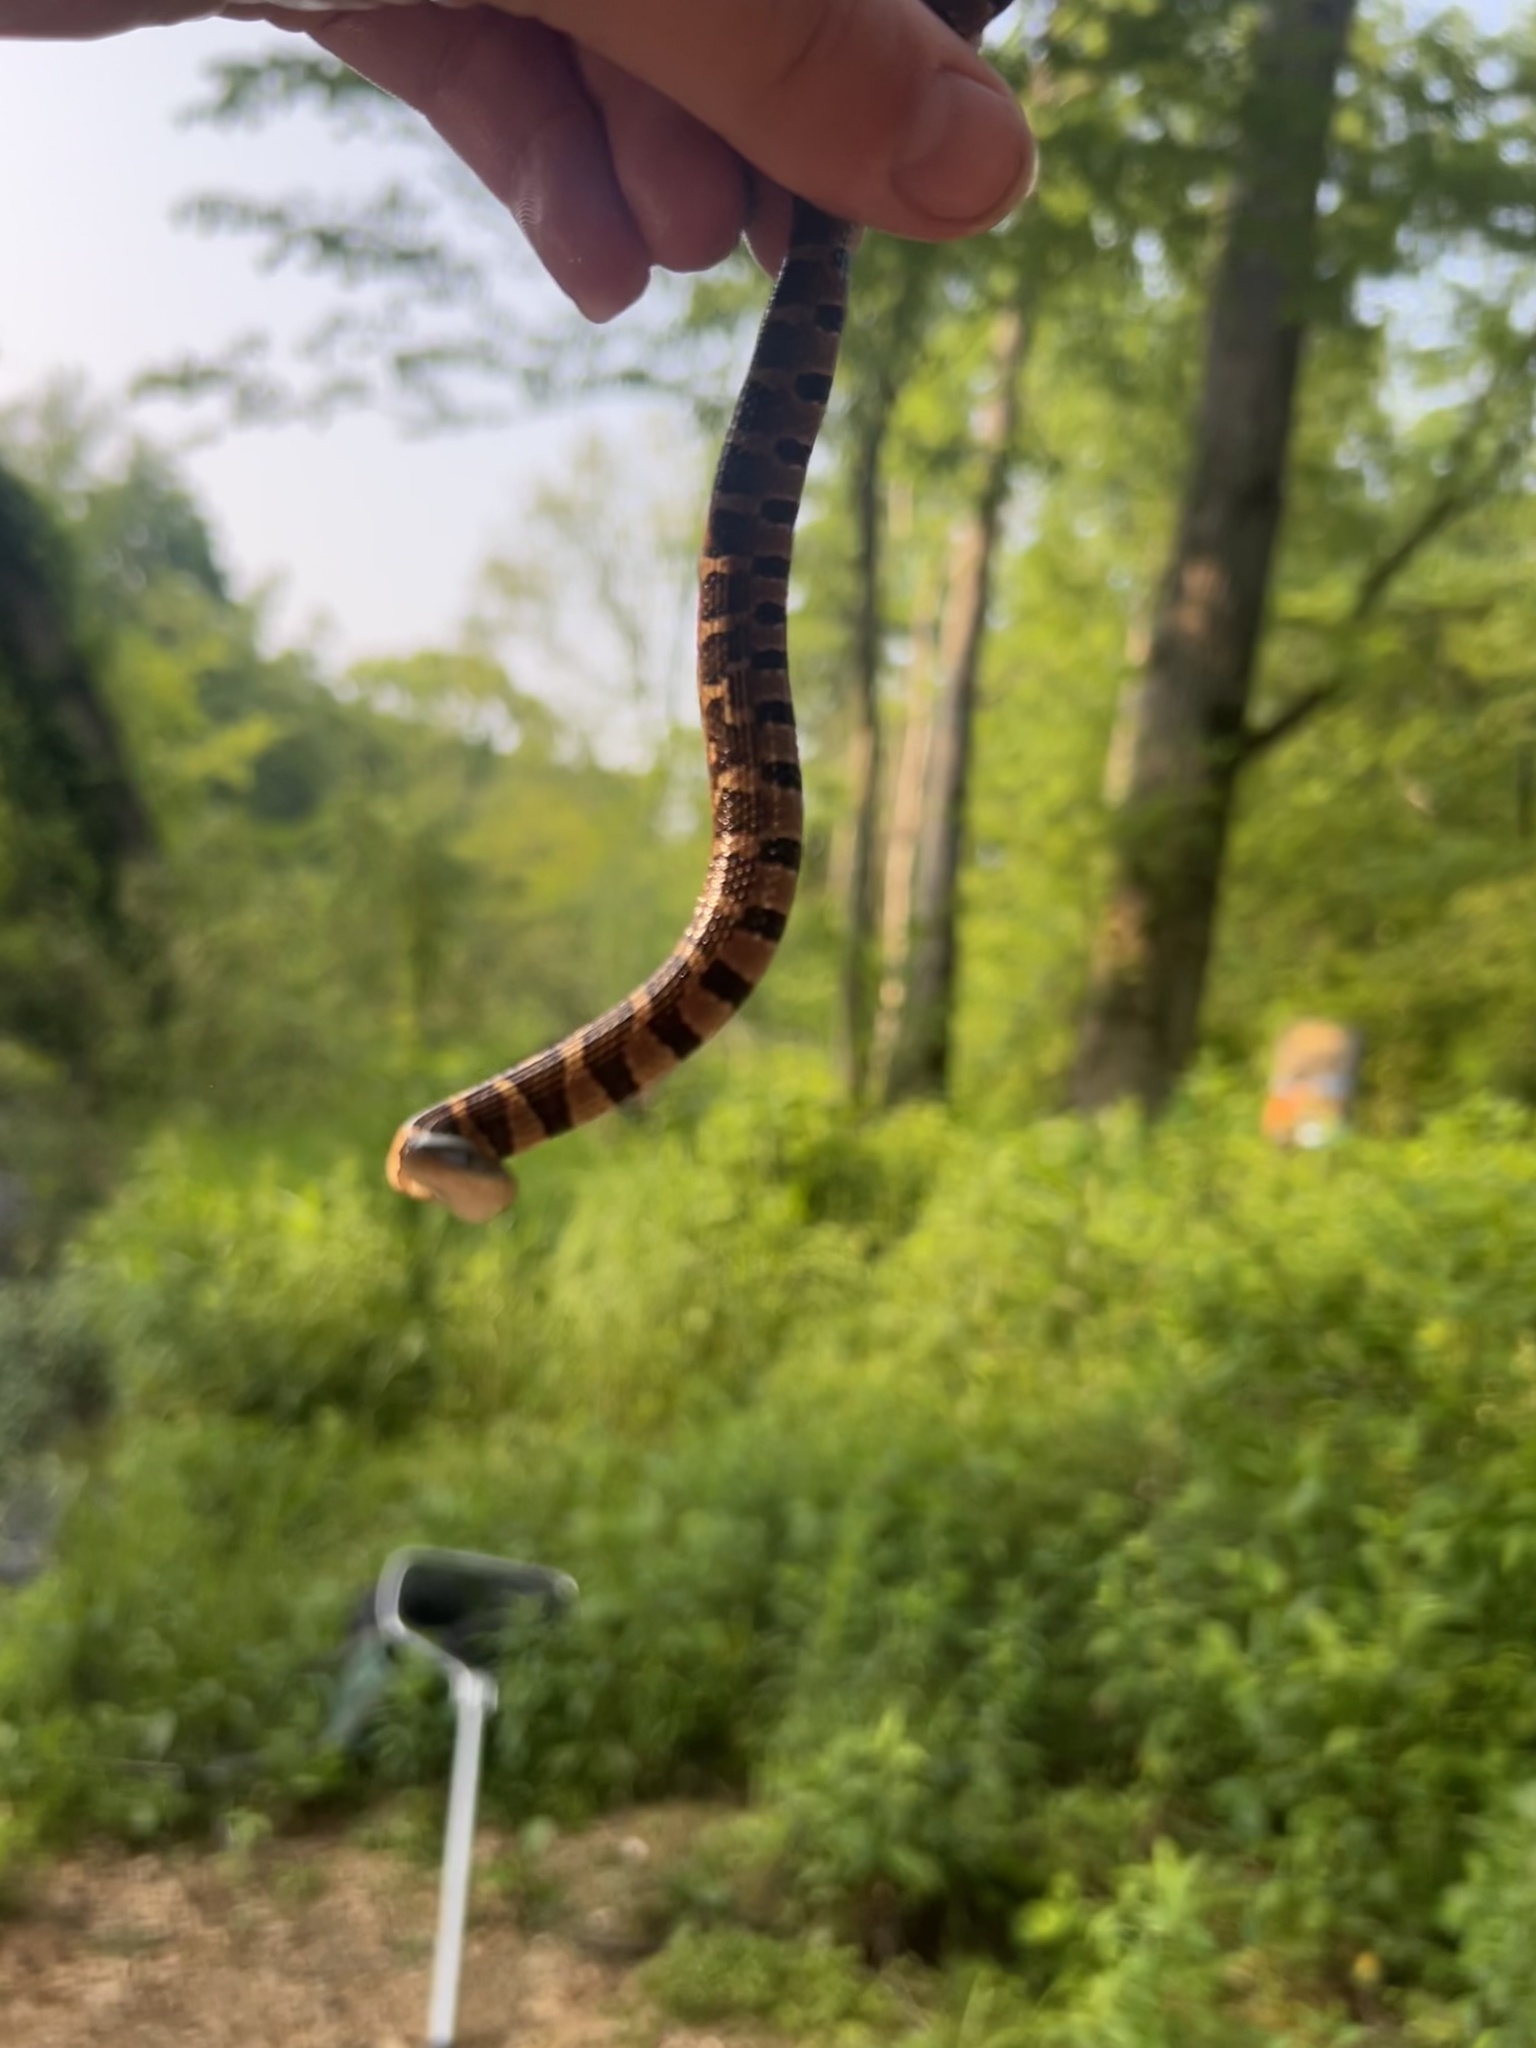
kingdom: Animalia
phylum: Chordata
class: Squamata
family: Colubridae
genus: Nerodia
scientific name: Nerodia sipedon
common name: Northern water snake
